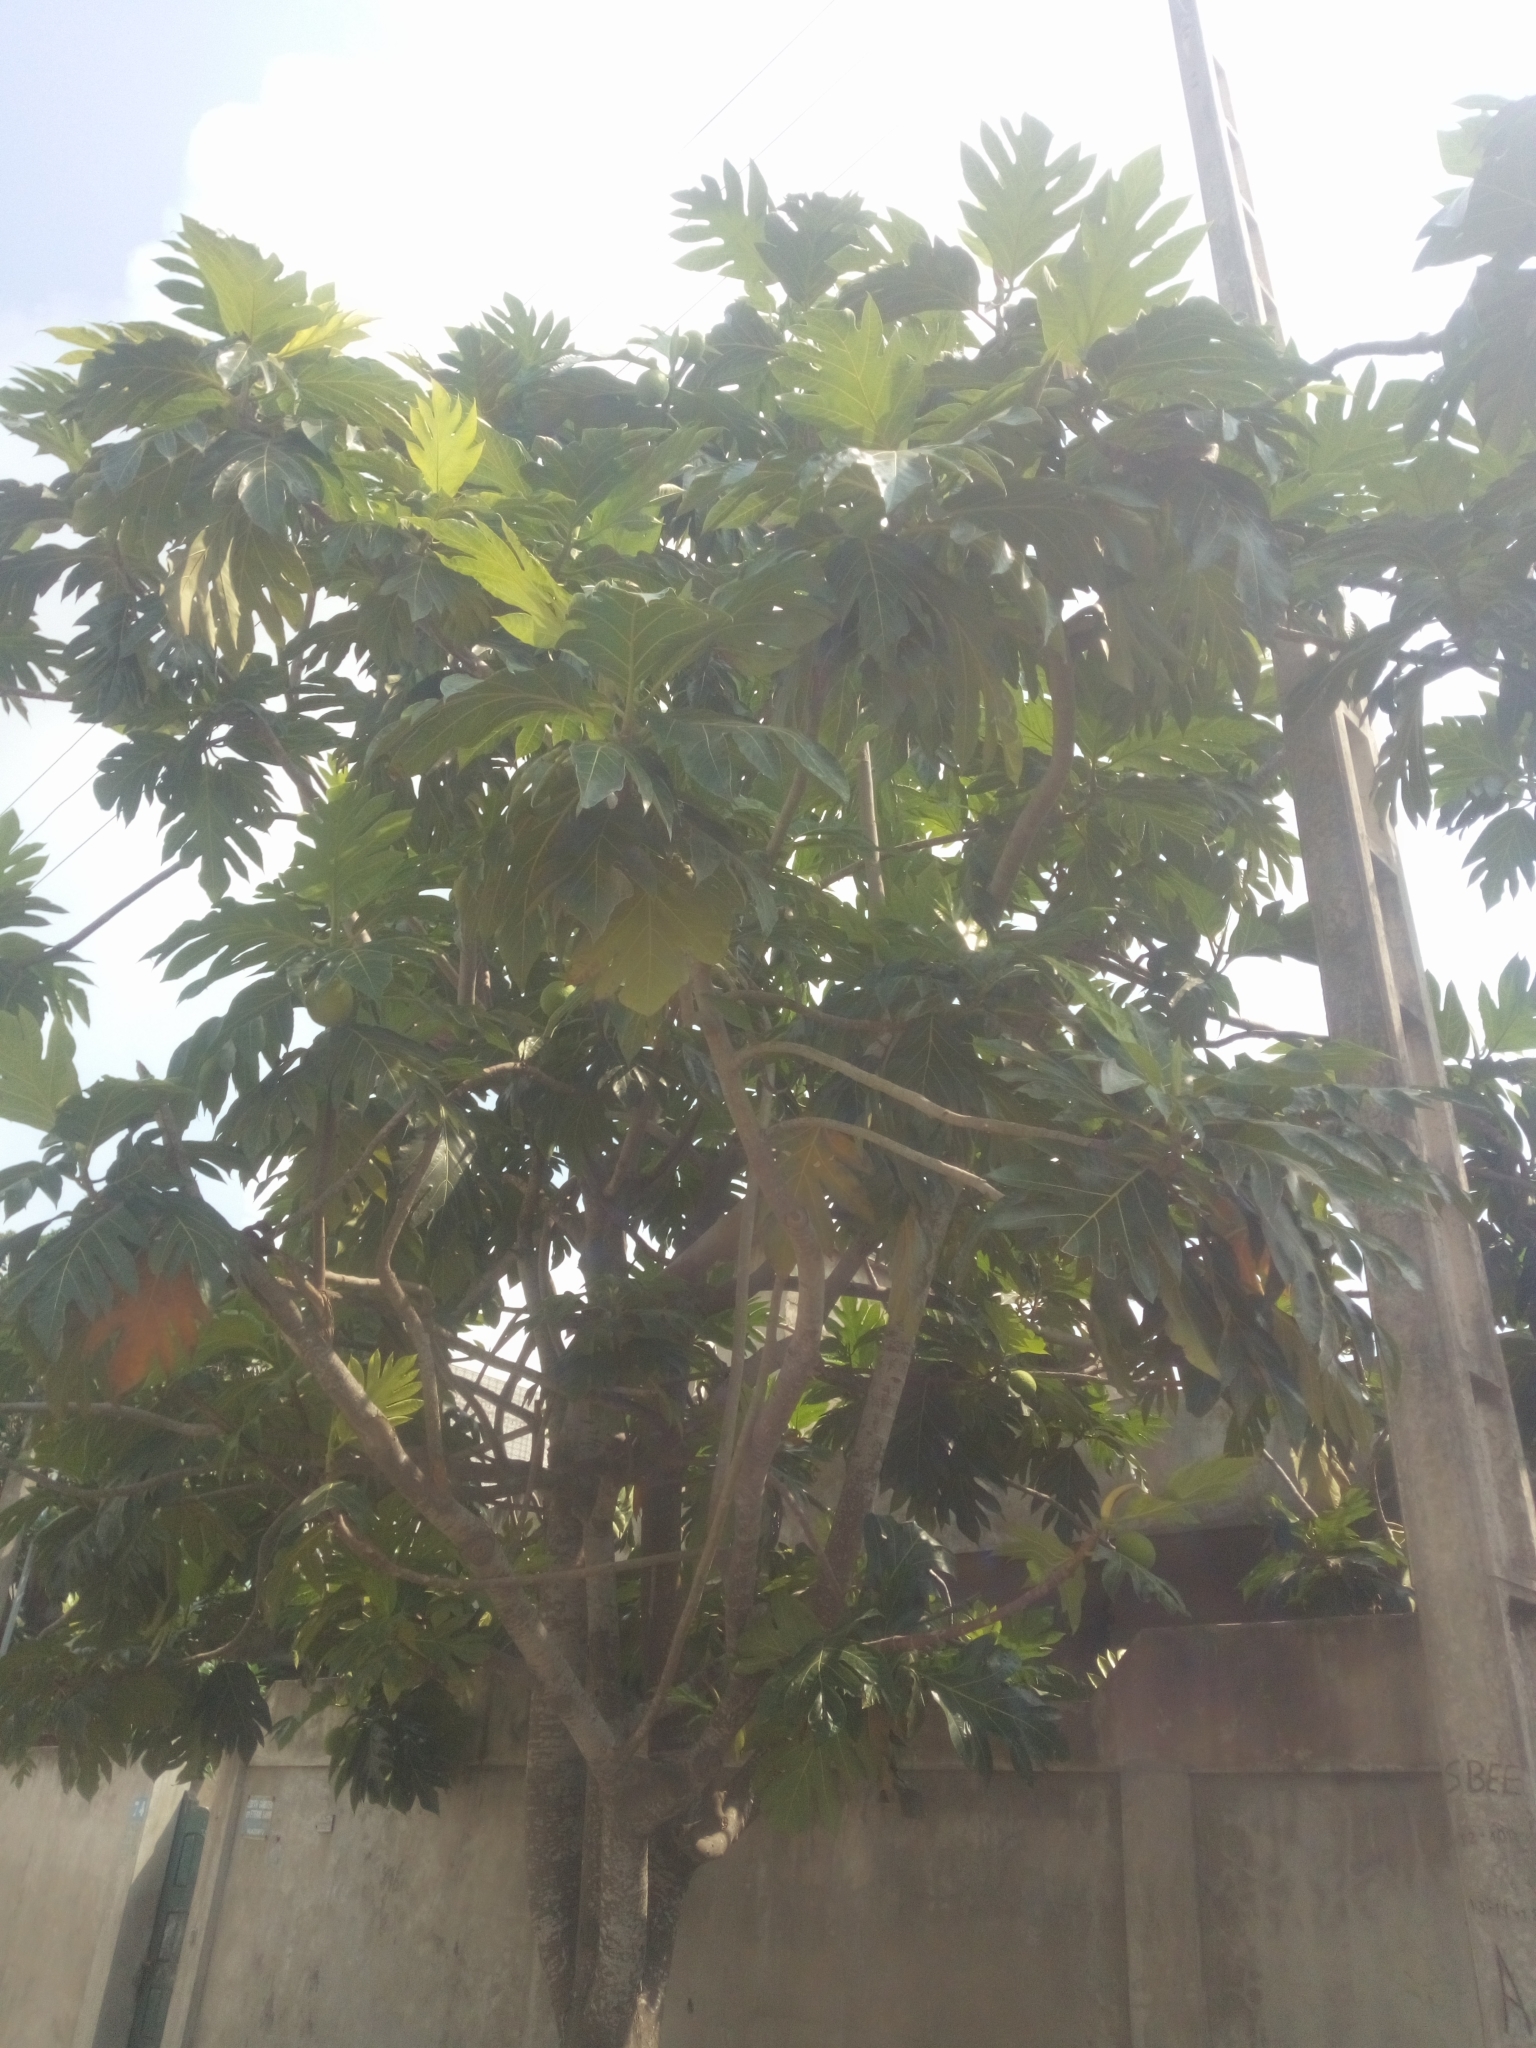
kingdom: Plantae
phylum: Tracheophyta
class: Magnoliopsida
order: Rosales
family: Moraceae
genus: Artocarpus
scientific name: Artocarpus altilis
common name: Breadfruit
